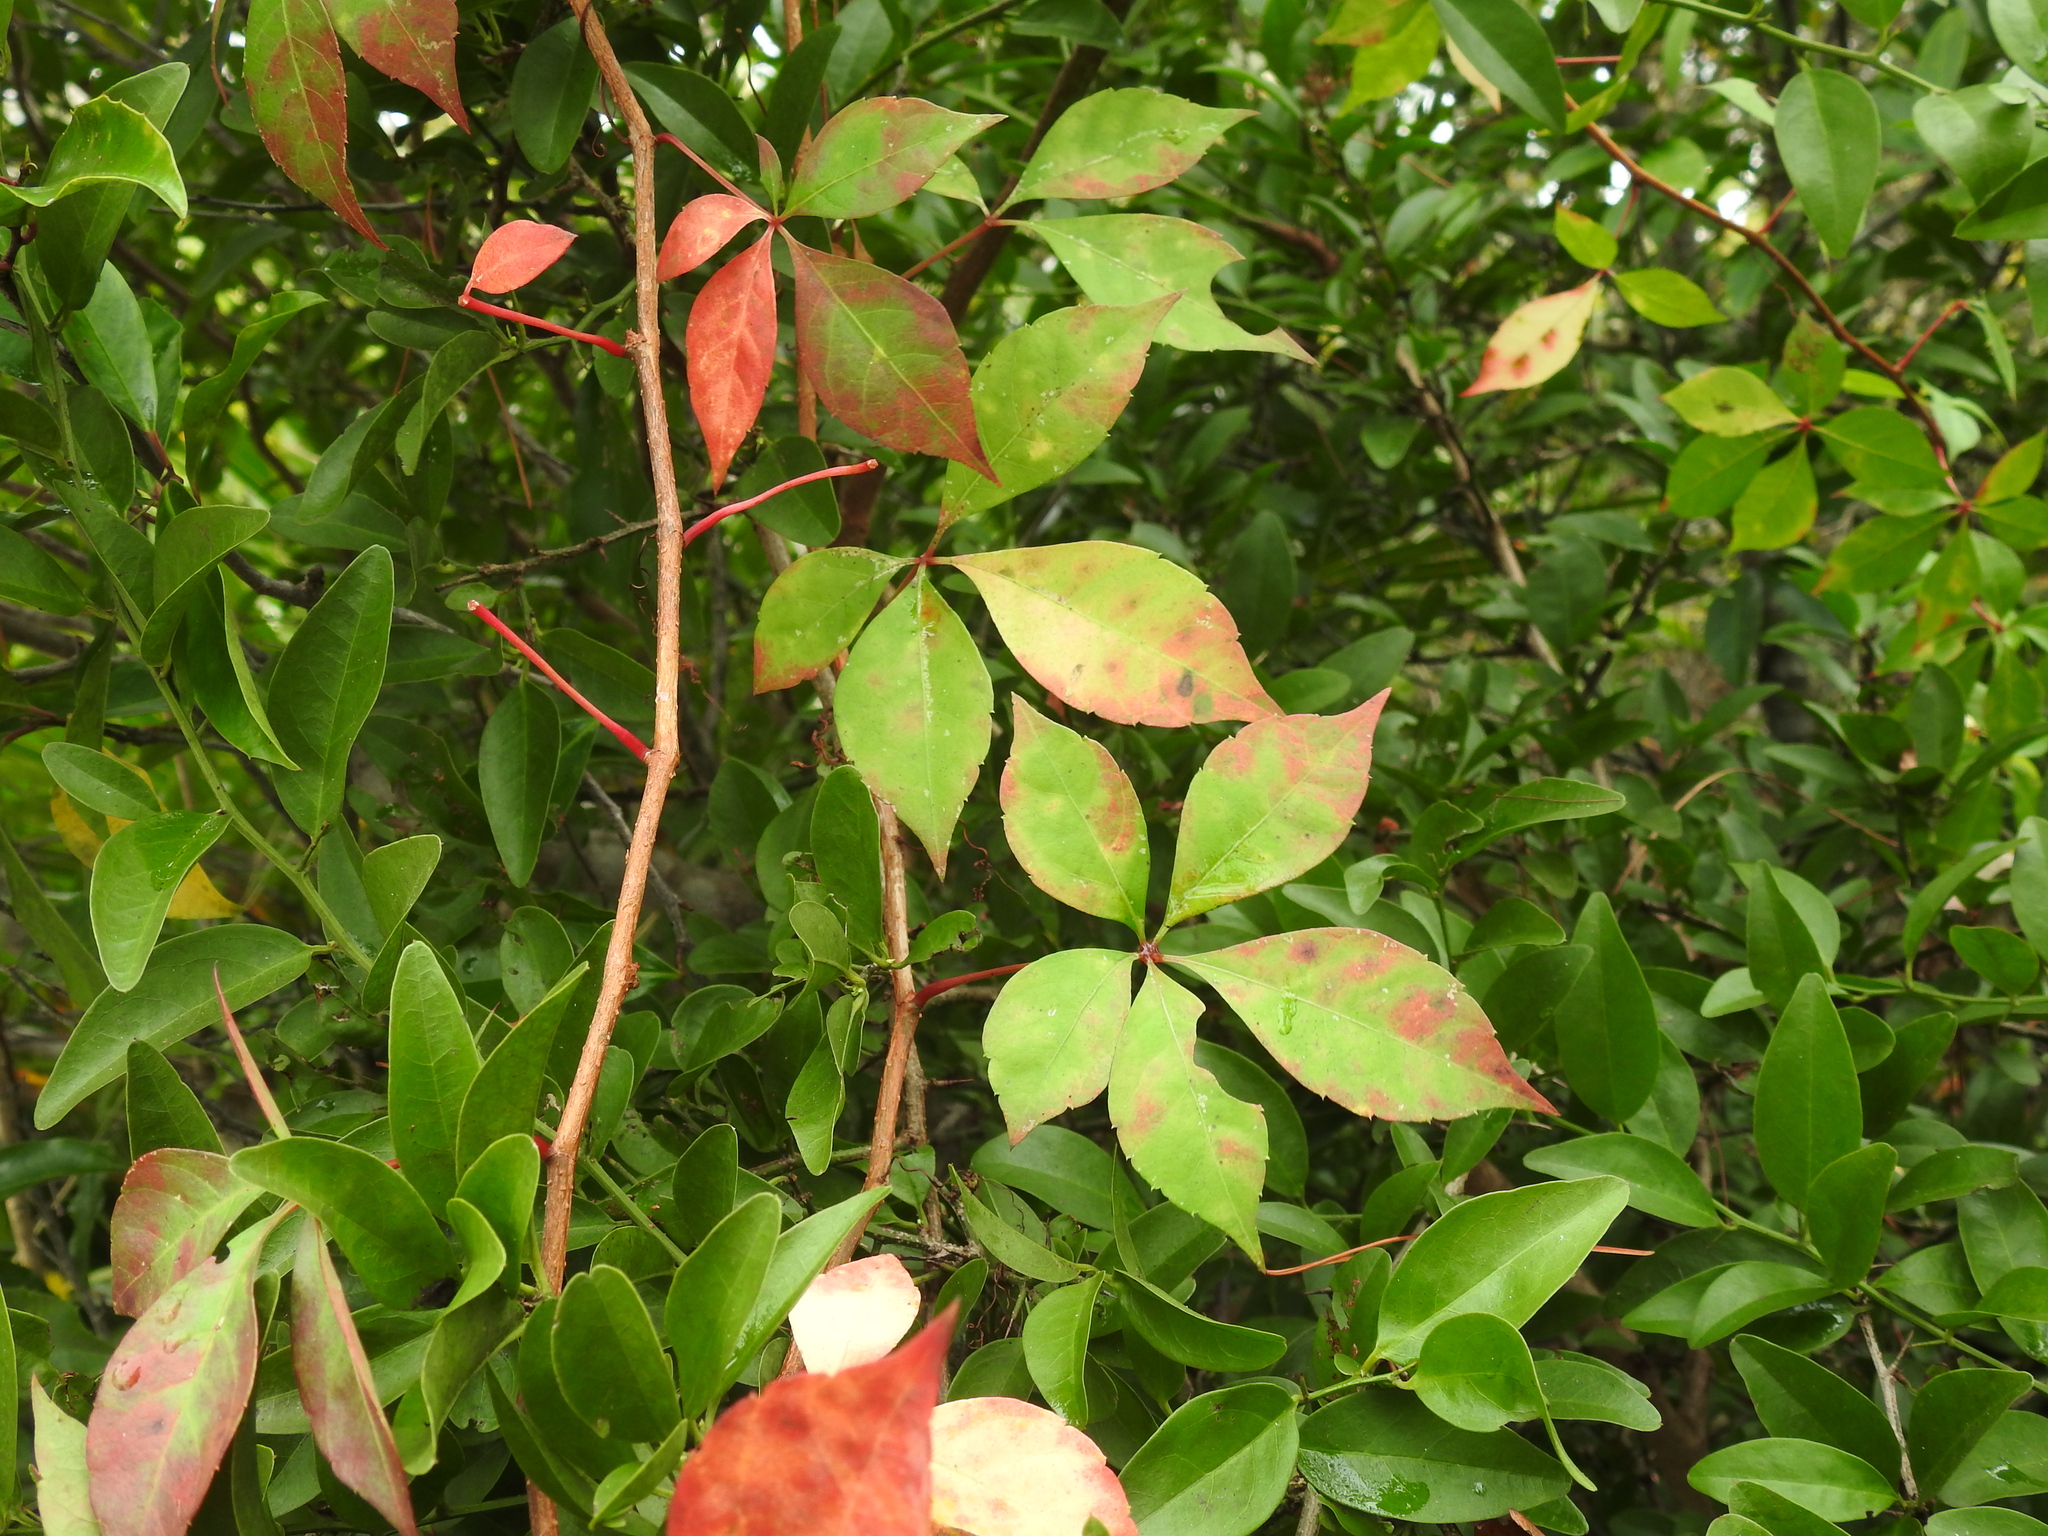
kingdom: Plantae
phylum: Tracheophyta
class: Magnoliopsida
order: Vitales
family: Vitaceae
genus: Parthenocissus
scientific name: Parthenocissus quinquefolia
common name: Virginia-creeper
